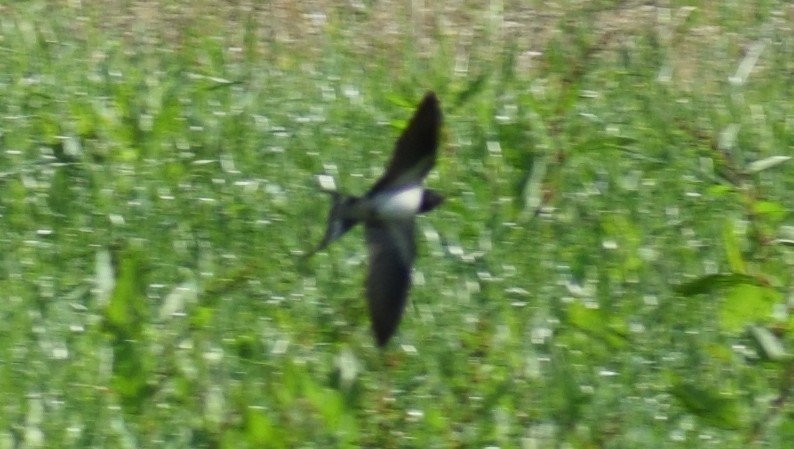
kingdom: Animalia
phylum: Chordata
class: Aves
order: Passeriformes
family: Hirundinidae
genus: Hirundo
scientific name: Hirundo rustica
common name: Barn swallow
